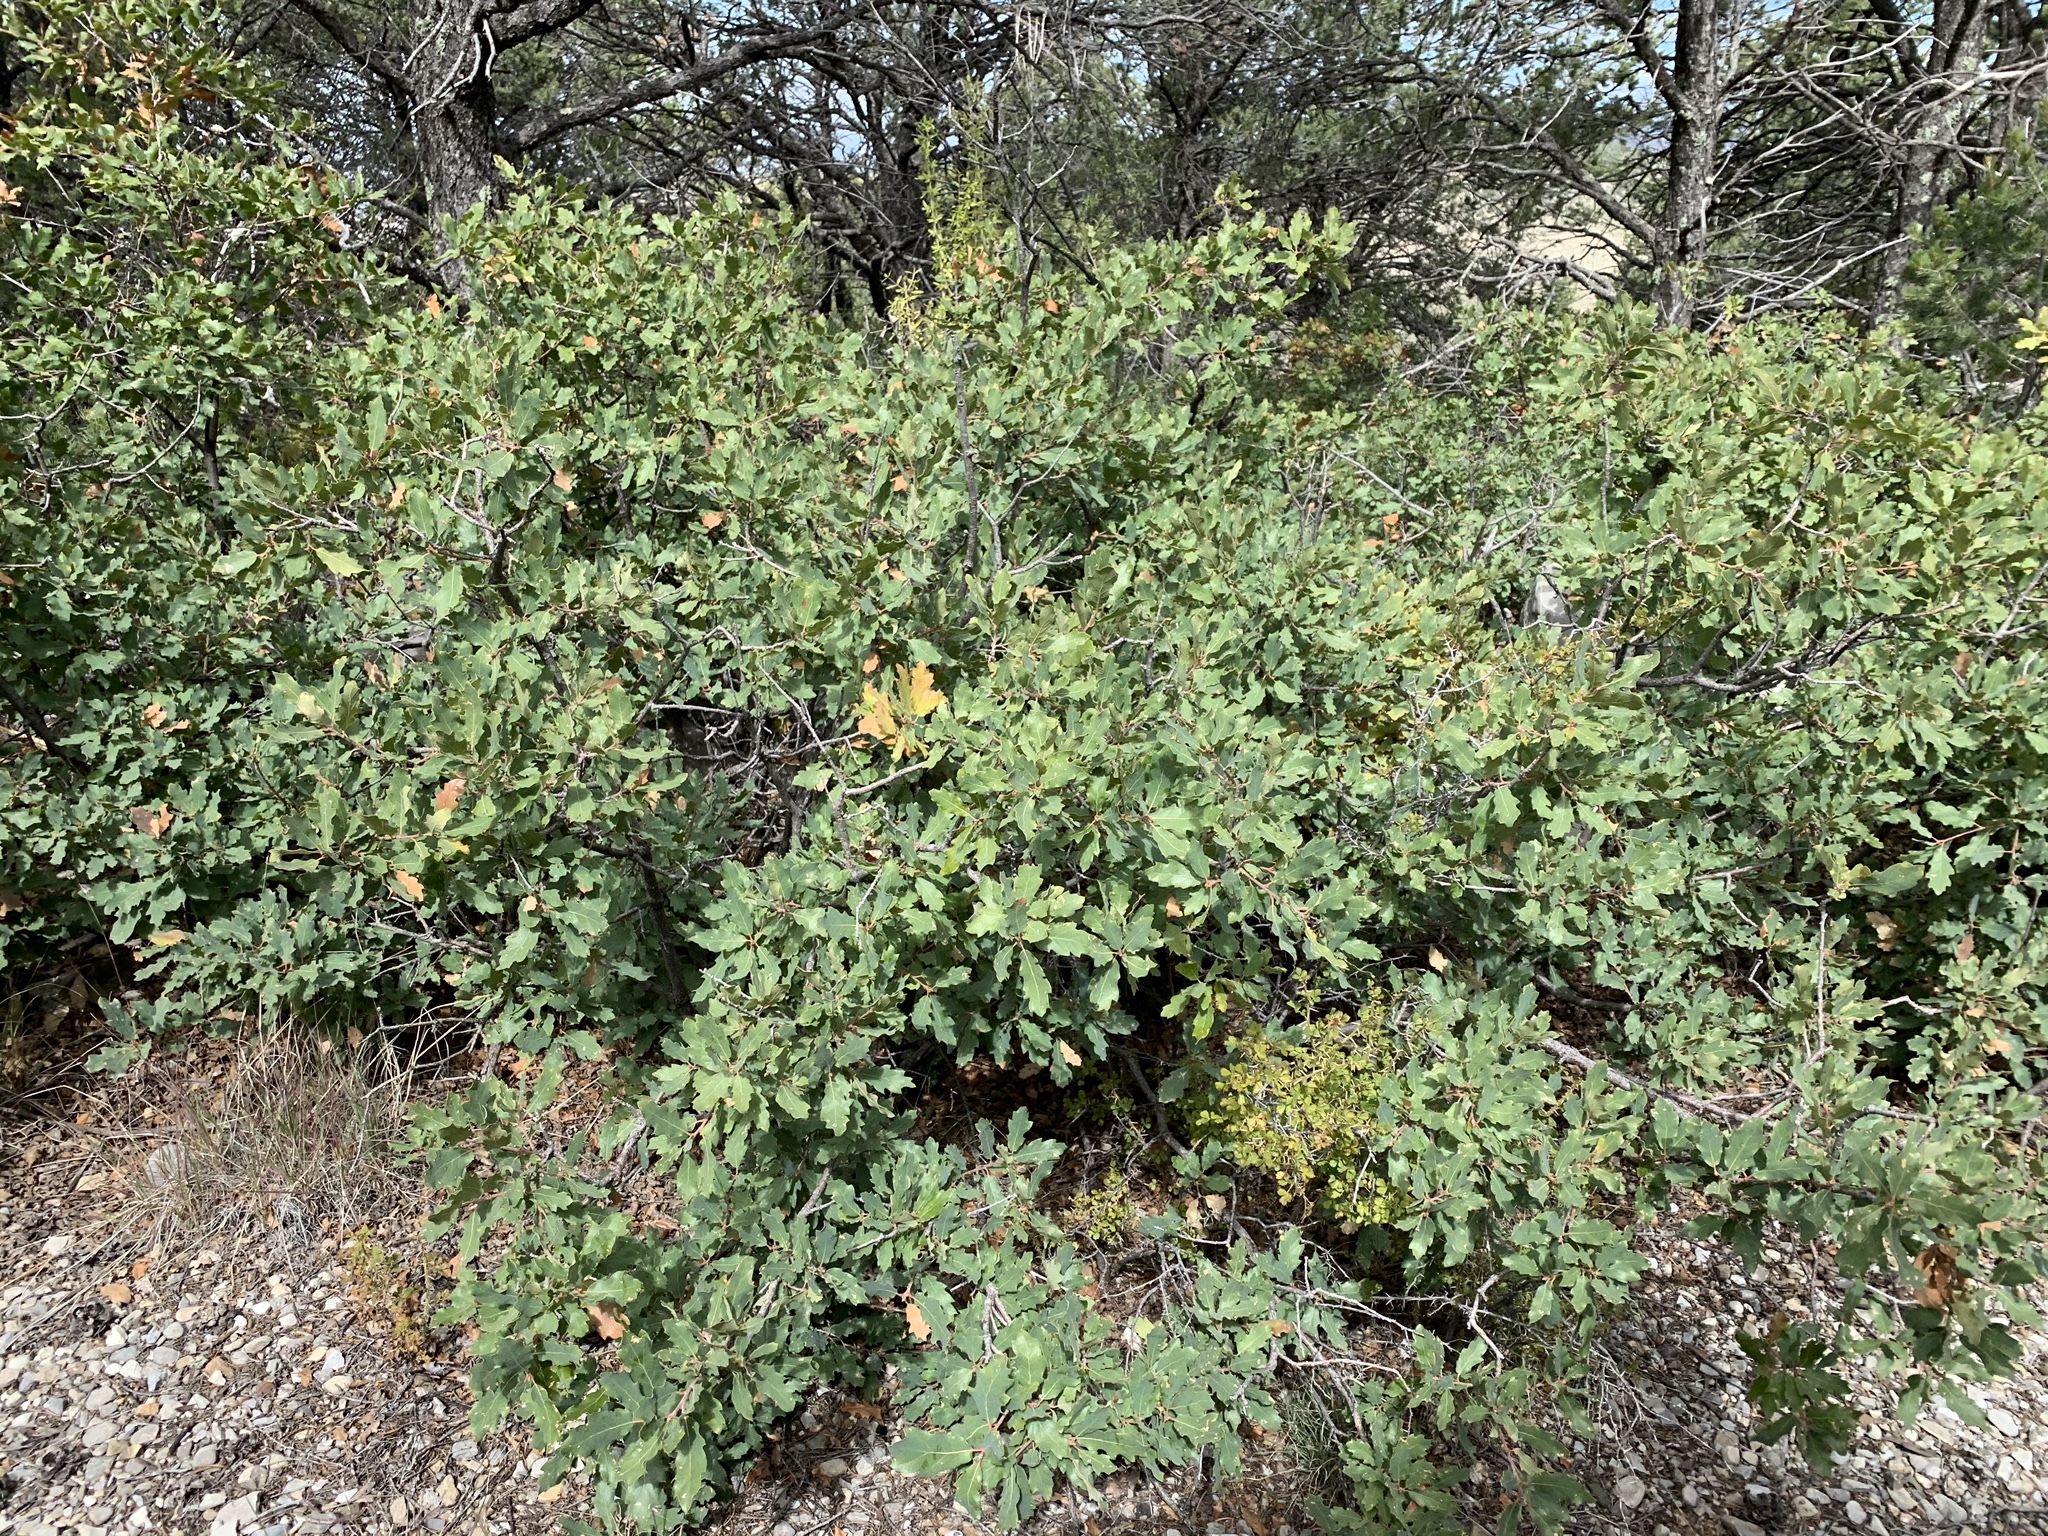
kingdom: Plantae
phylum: Tracheophyta
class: Magnoliopsida
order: Fagales
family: Fagaceae
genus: Quercus
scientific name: Quercus undulata
